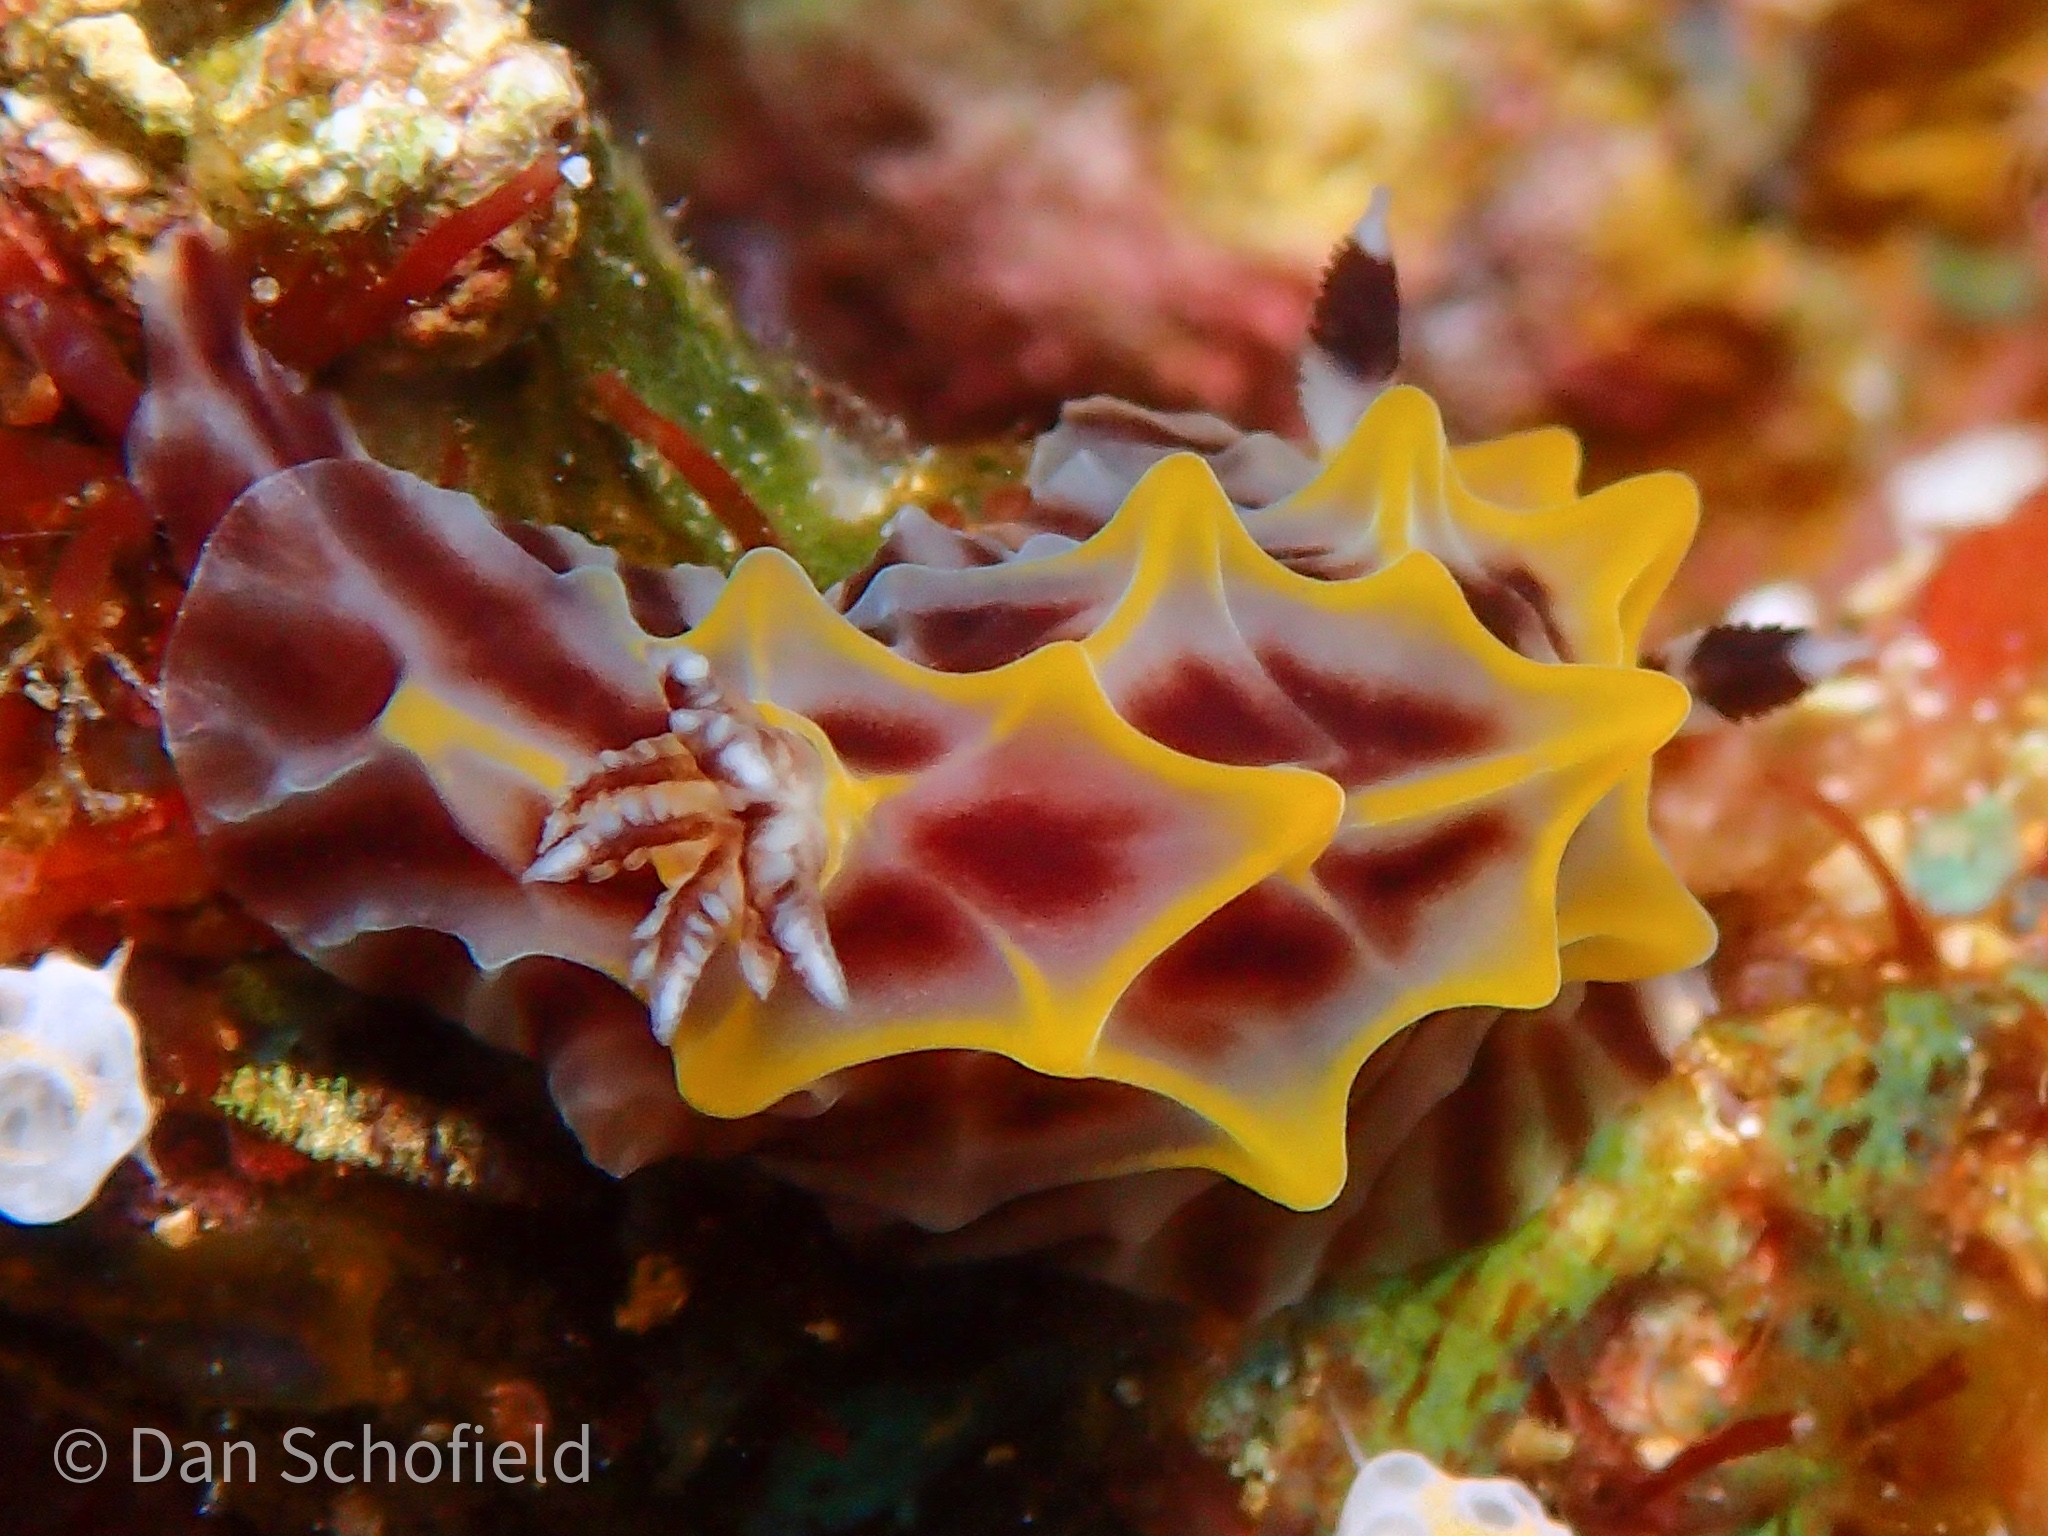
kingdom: Animalia
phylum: Mollusca
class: Gastropoda
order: Nudibranchia
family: Discodorididae
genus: Halgerda
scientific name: Halgerda willeyi
